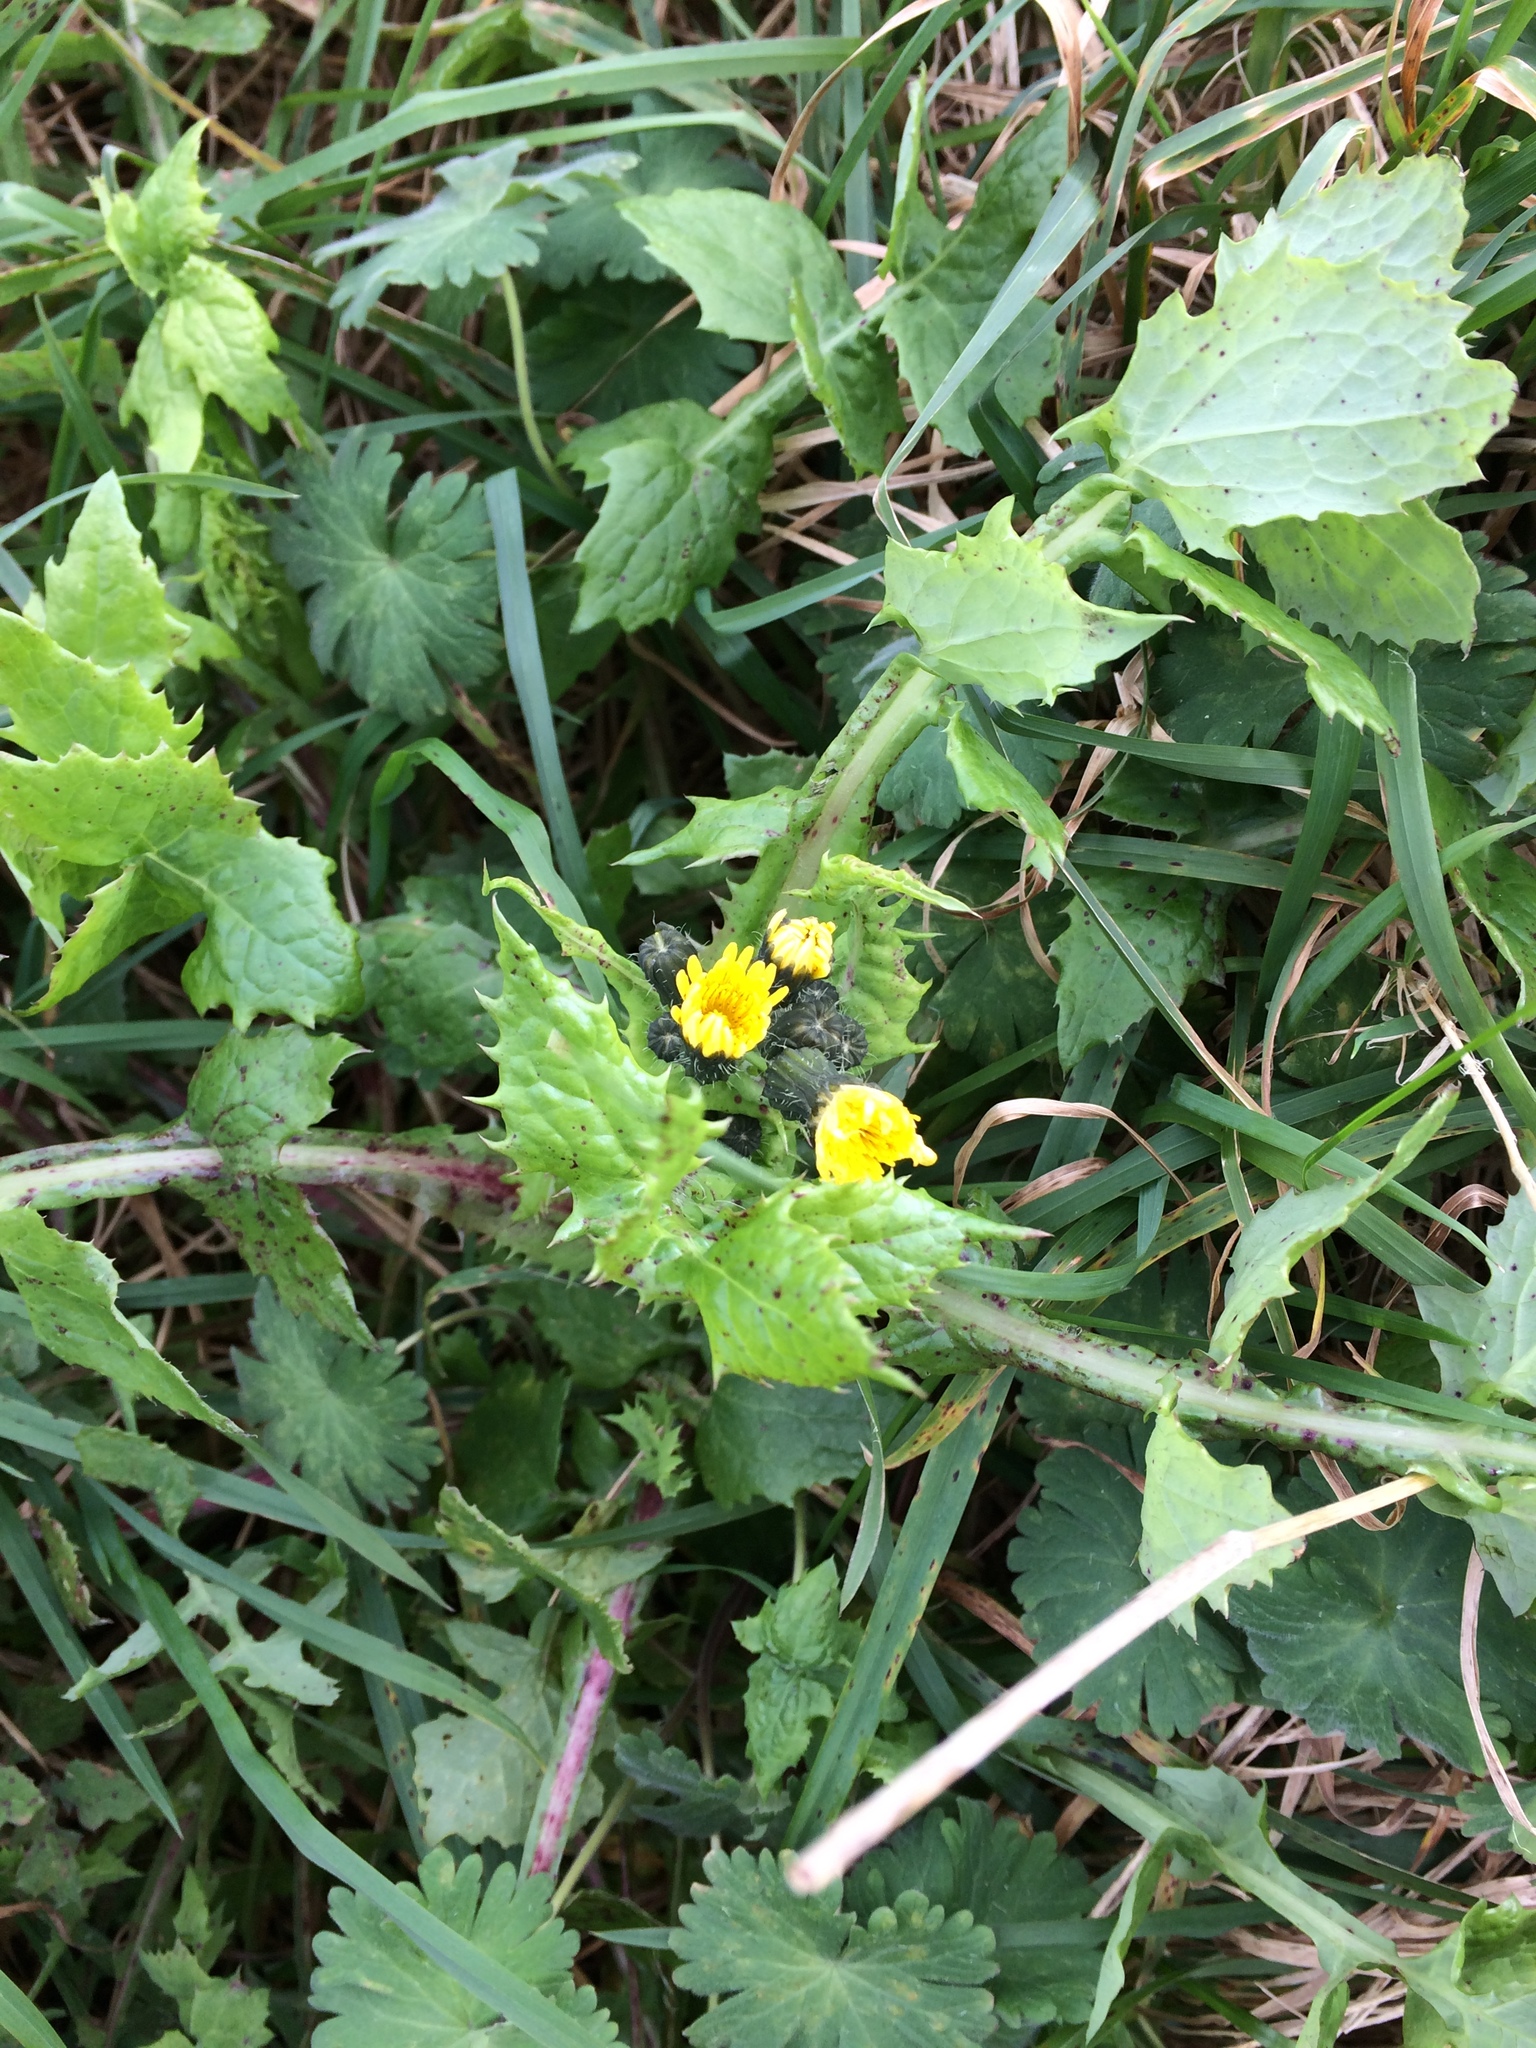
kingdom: Plantae
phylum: Tracheophyta
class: Magnoliopsida
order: Asterales
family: Asteraceae
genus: Sonchus
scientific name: Sonchus oleraceus
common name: Common sowthistle
